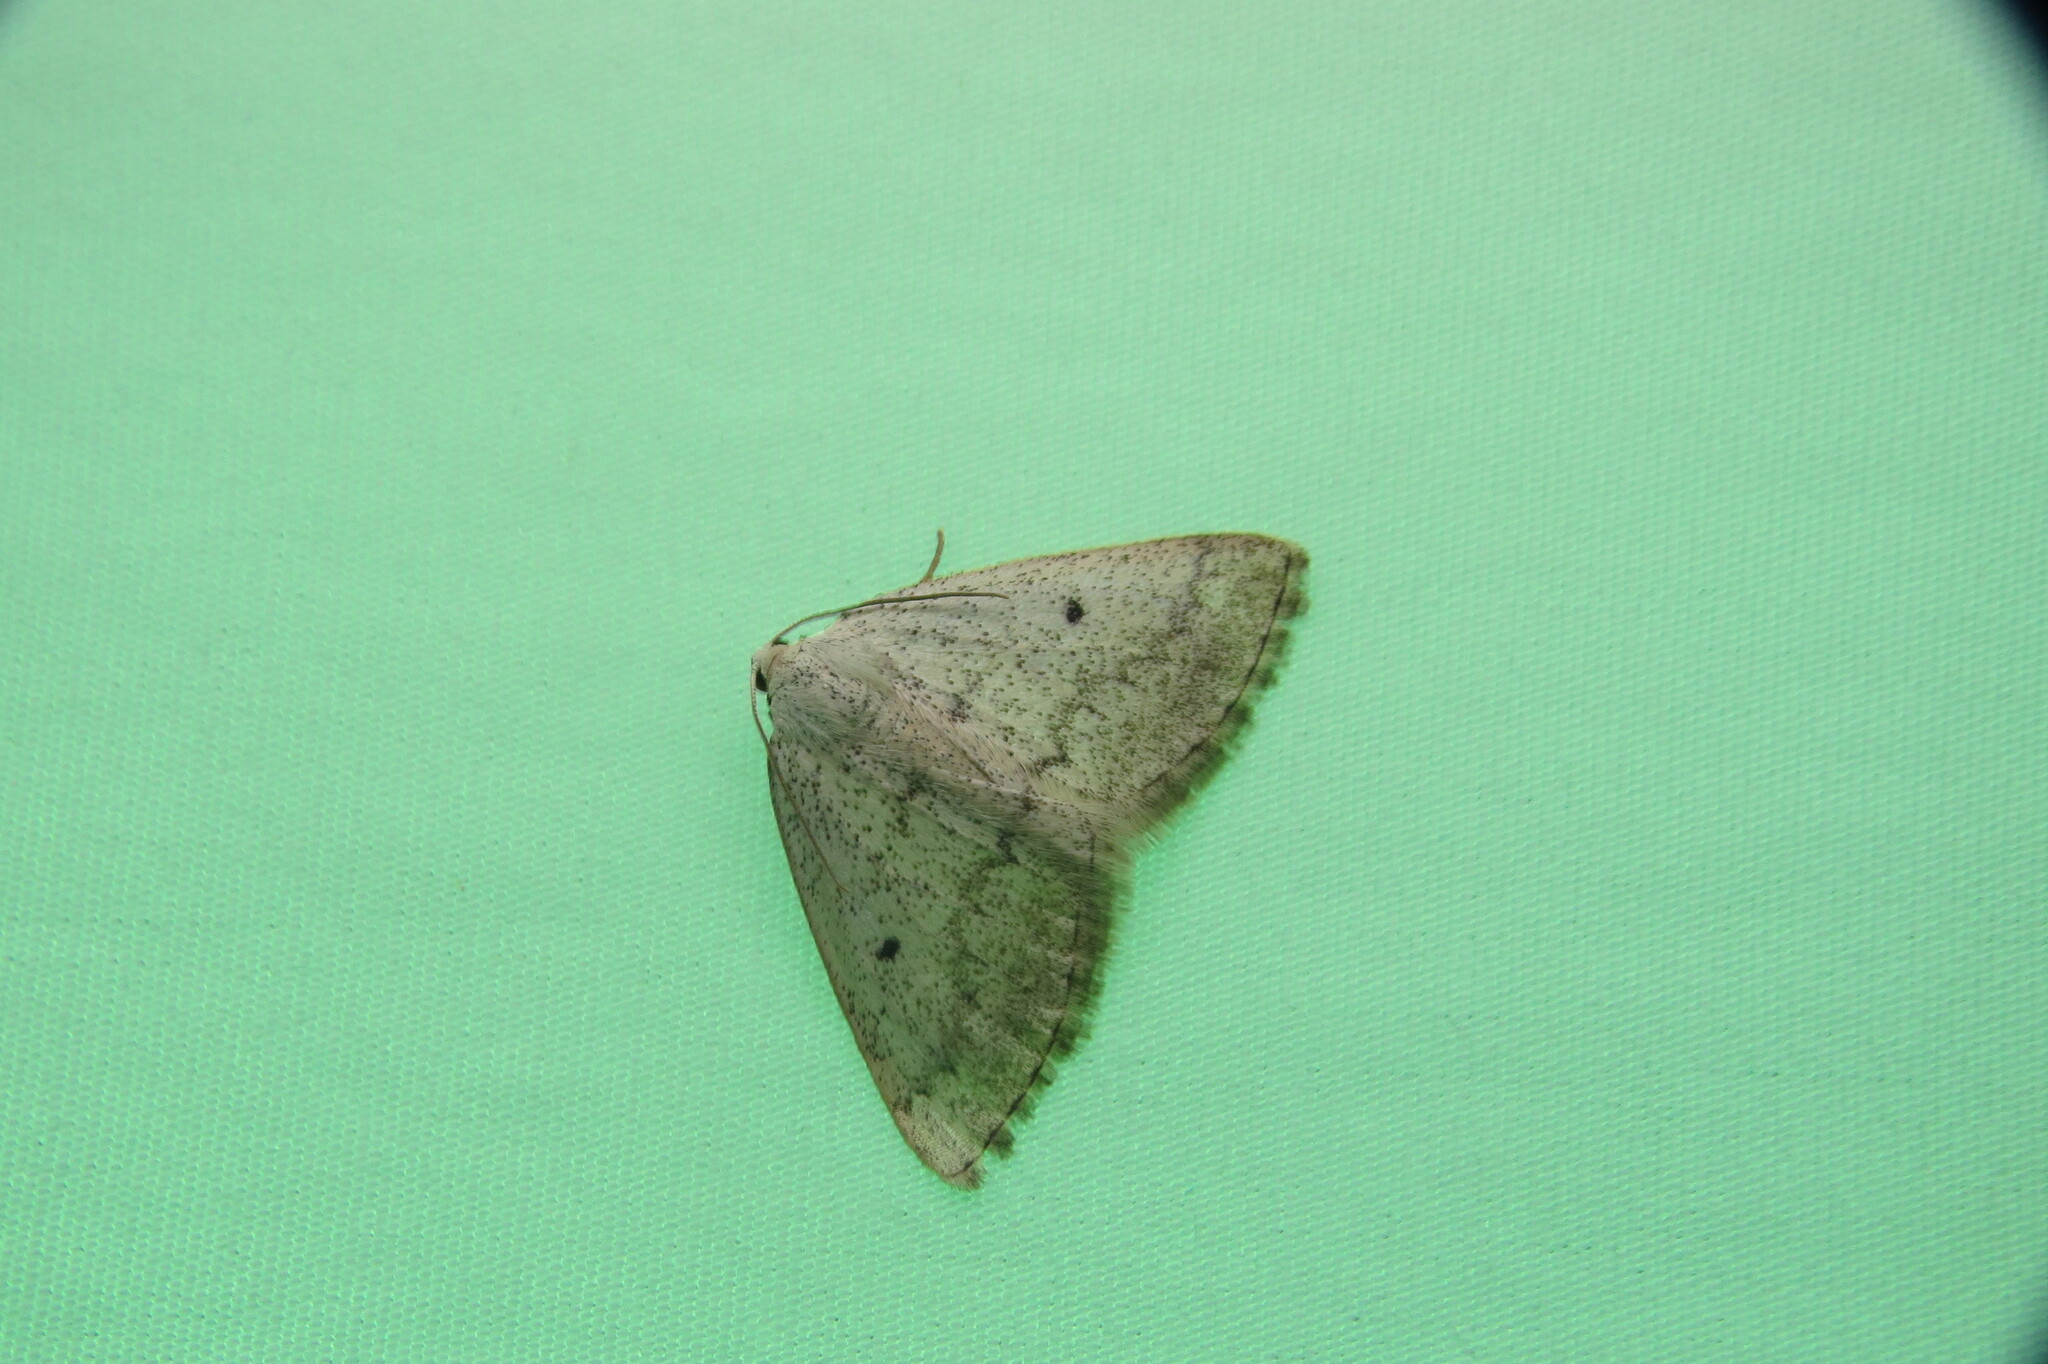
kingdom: Animalia
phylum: Arthropoda
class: Insecta
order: Lepidoptera
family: Geometridae
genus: Lomographa
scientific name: Lomographa glomeraria
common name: Gray spring moth
